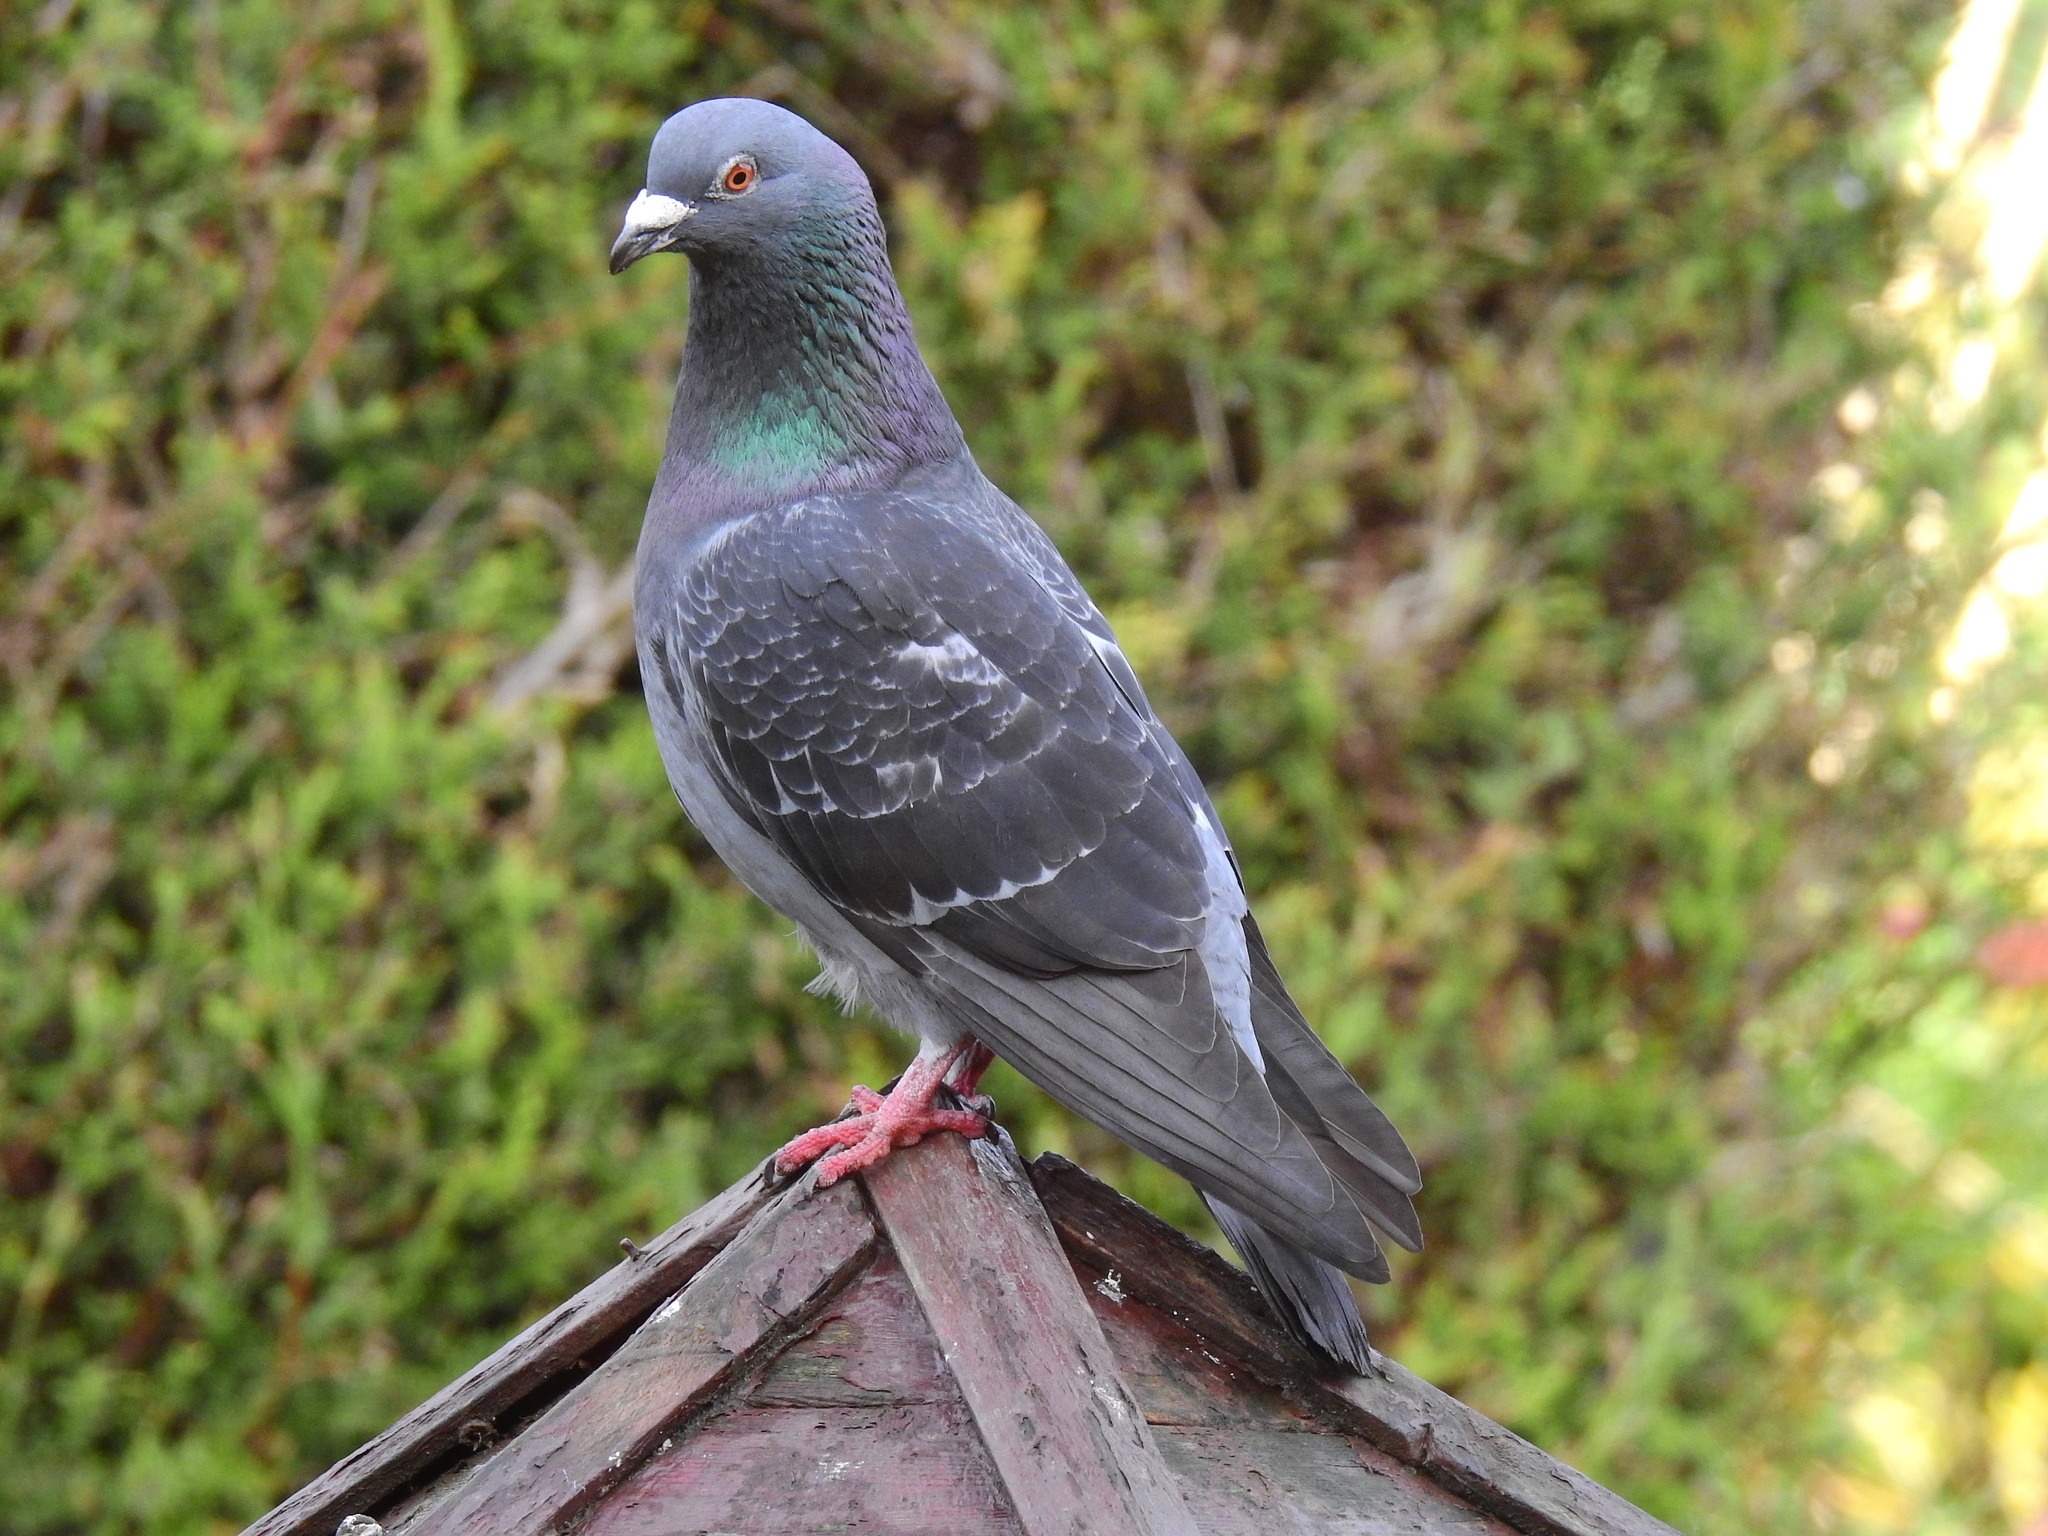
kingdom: Animalia
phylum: Chordata
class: Aves
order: Columbiformes
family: Columbidae
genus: Columba
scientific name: Columba livia
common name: Rock pigeon
